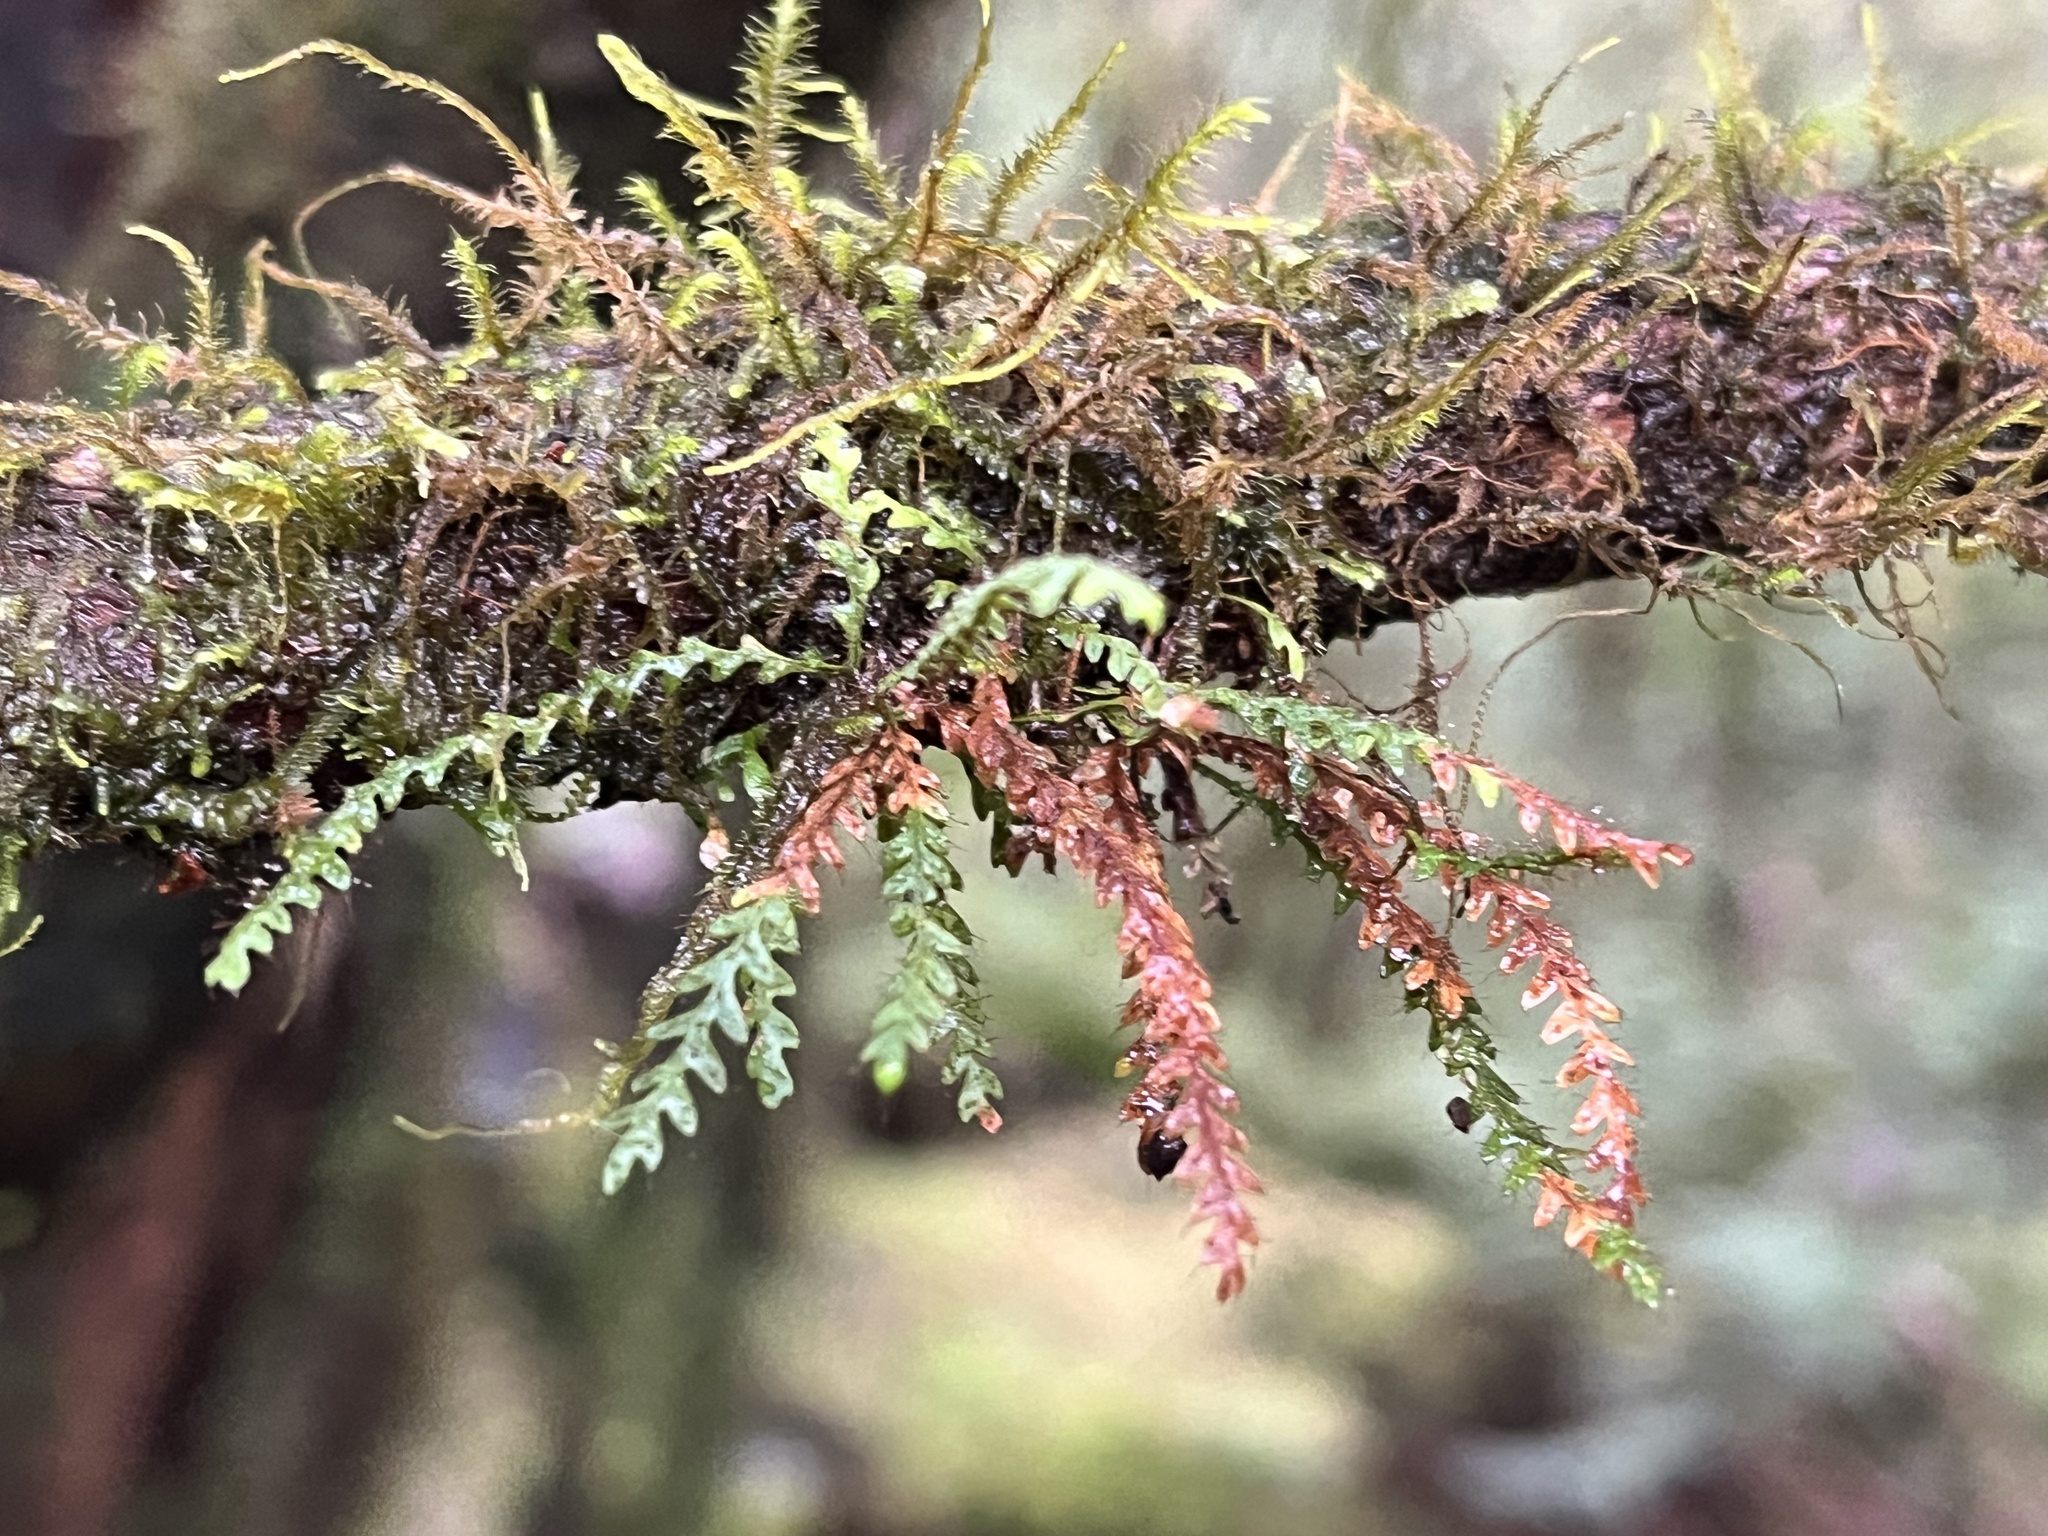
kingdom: Plantae
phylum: Tracheophyta
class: Polypodiopsida
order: Polypodiales
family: Polypodiaceae
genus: Micropolypodium
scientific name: Micropolypodium okuboi
